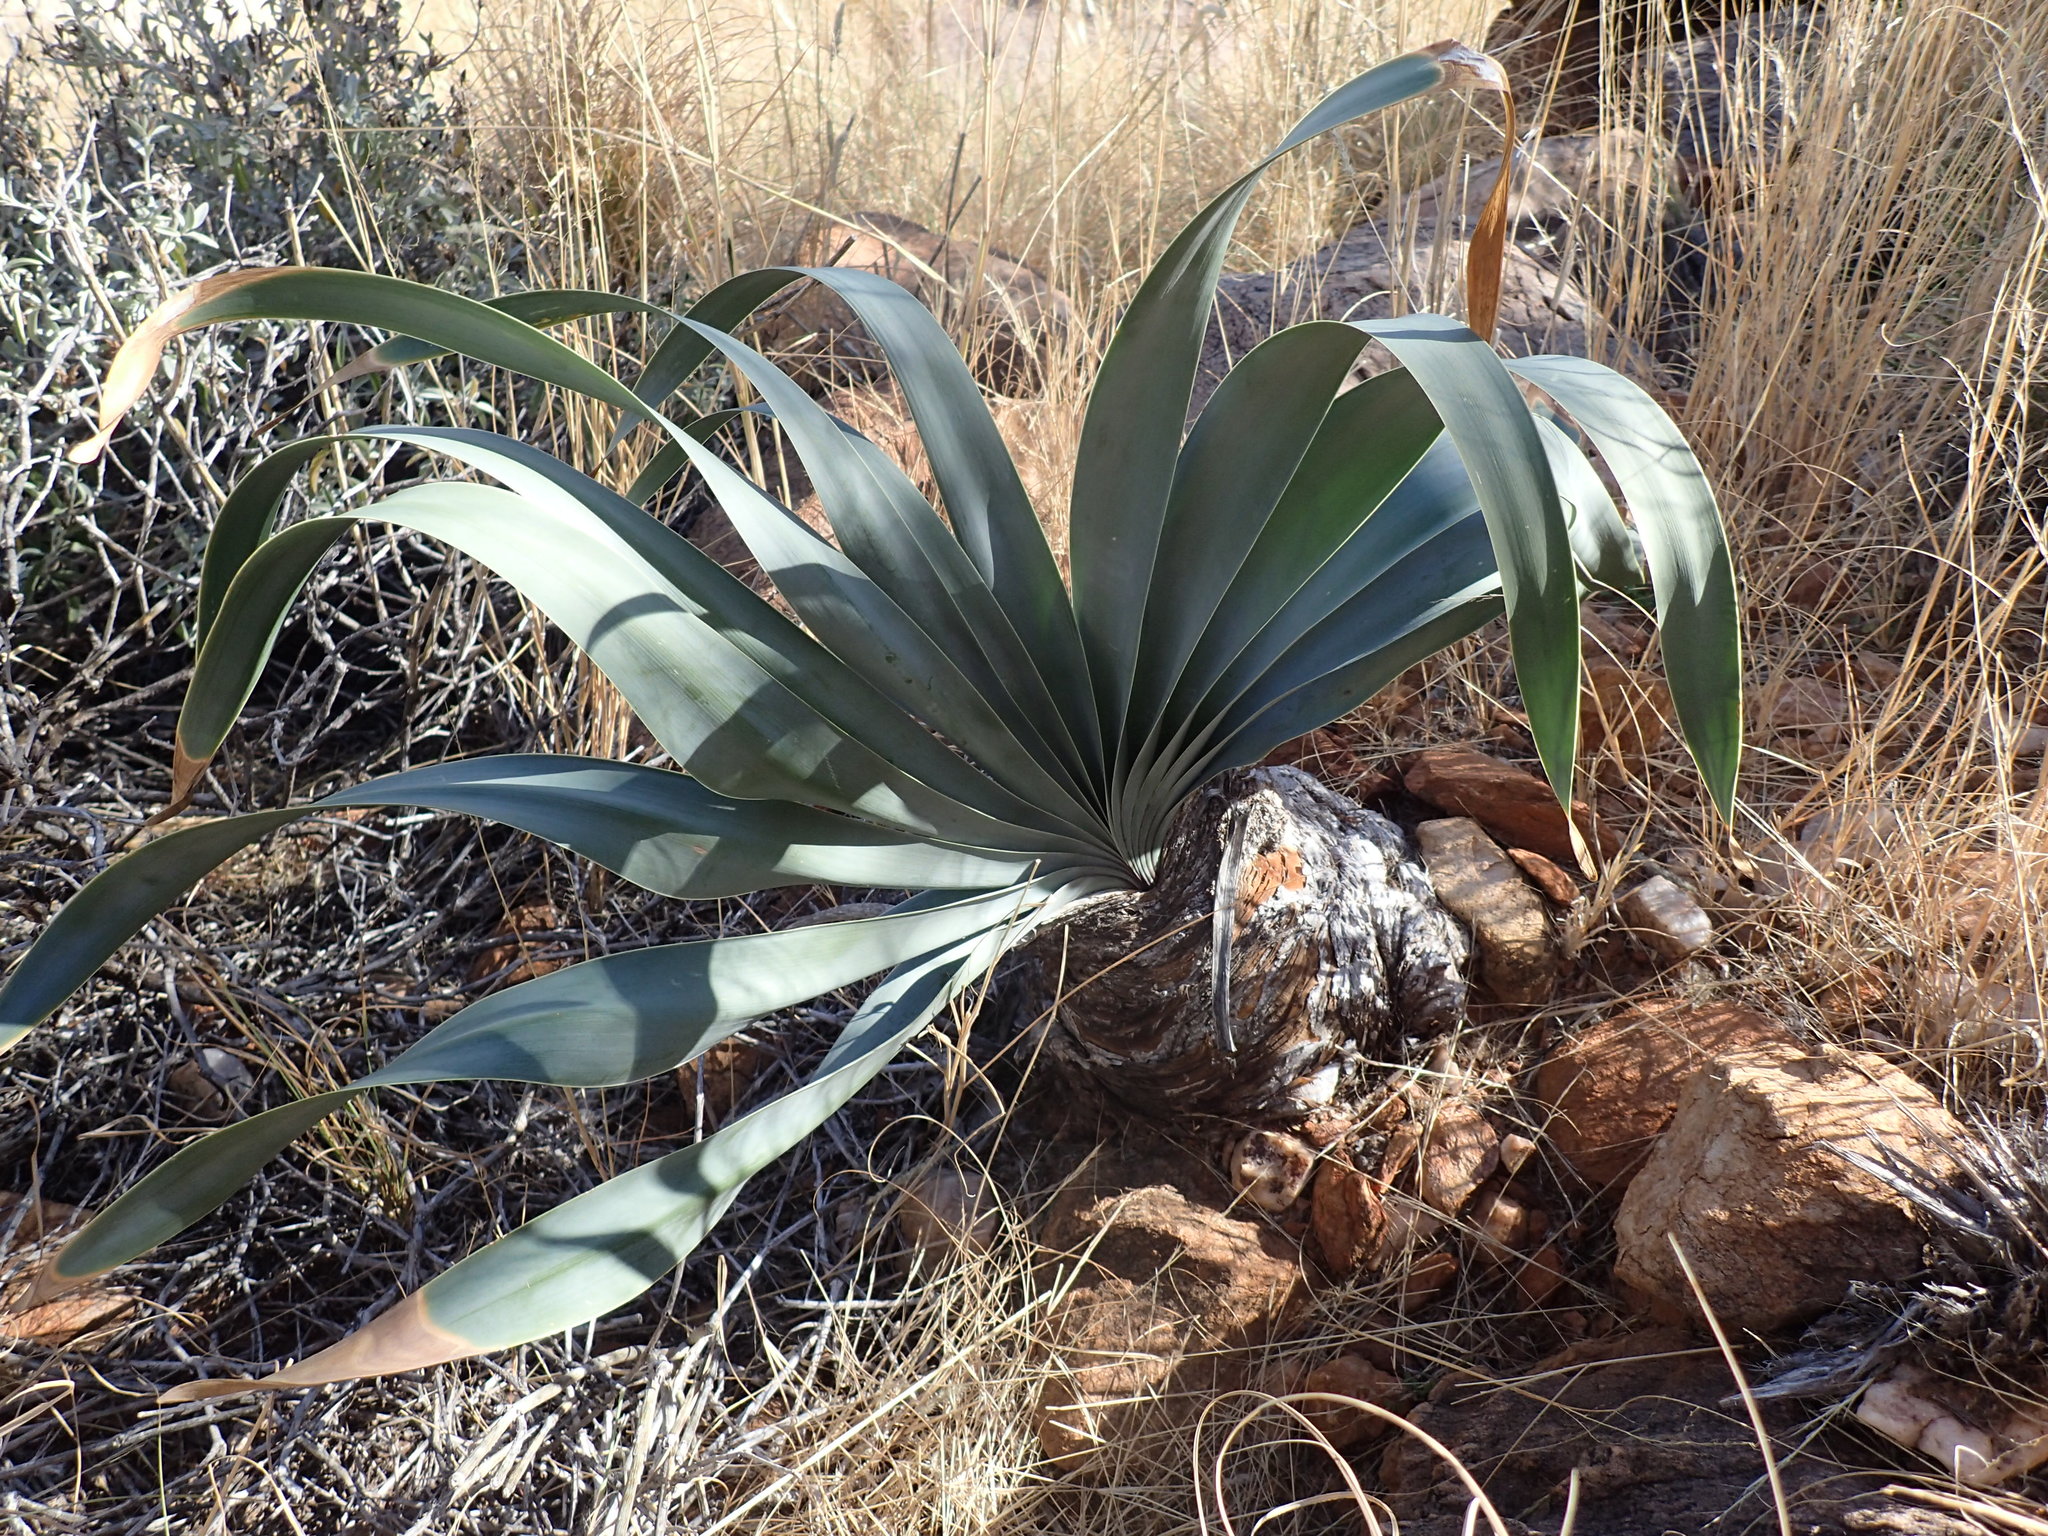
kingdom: Plantae
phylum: Tracheophyta
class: Liliopsida
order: Asparagales
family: Amaryllidaceae
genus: Boophone
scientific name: Boophone disticha
